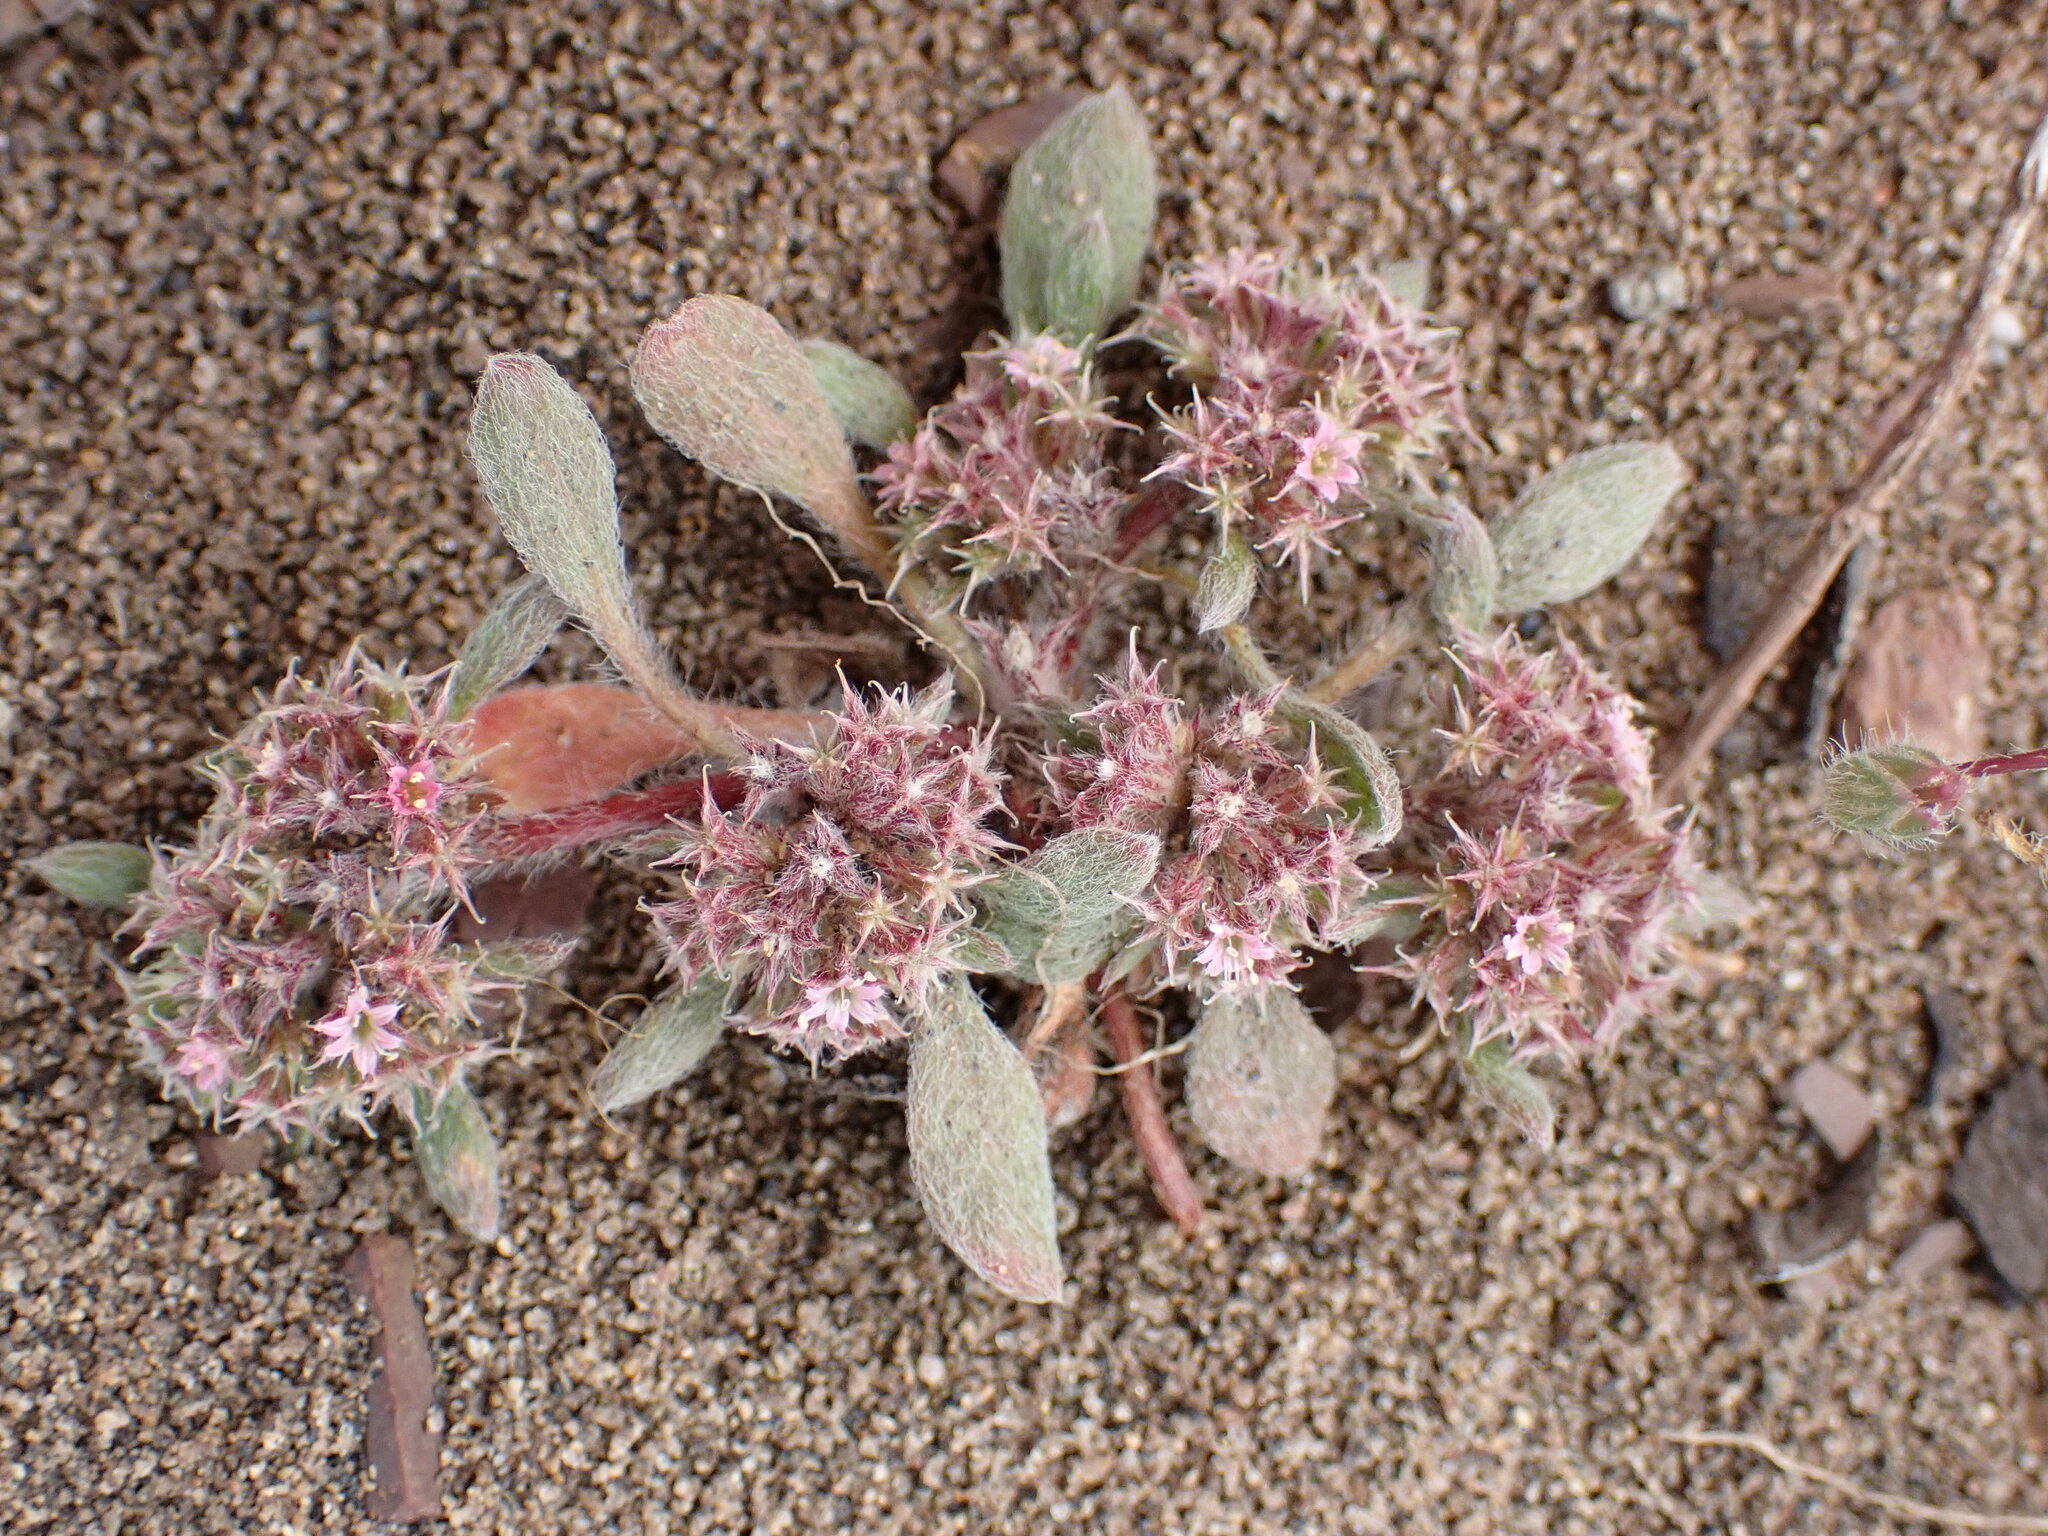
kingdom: Plantae
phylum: Tracheophyta
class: Magnoliopsida
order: Caryophyllales
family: Polygonaceae
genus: Chorizanthe
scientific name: Chorizanthe cuspidata
